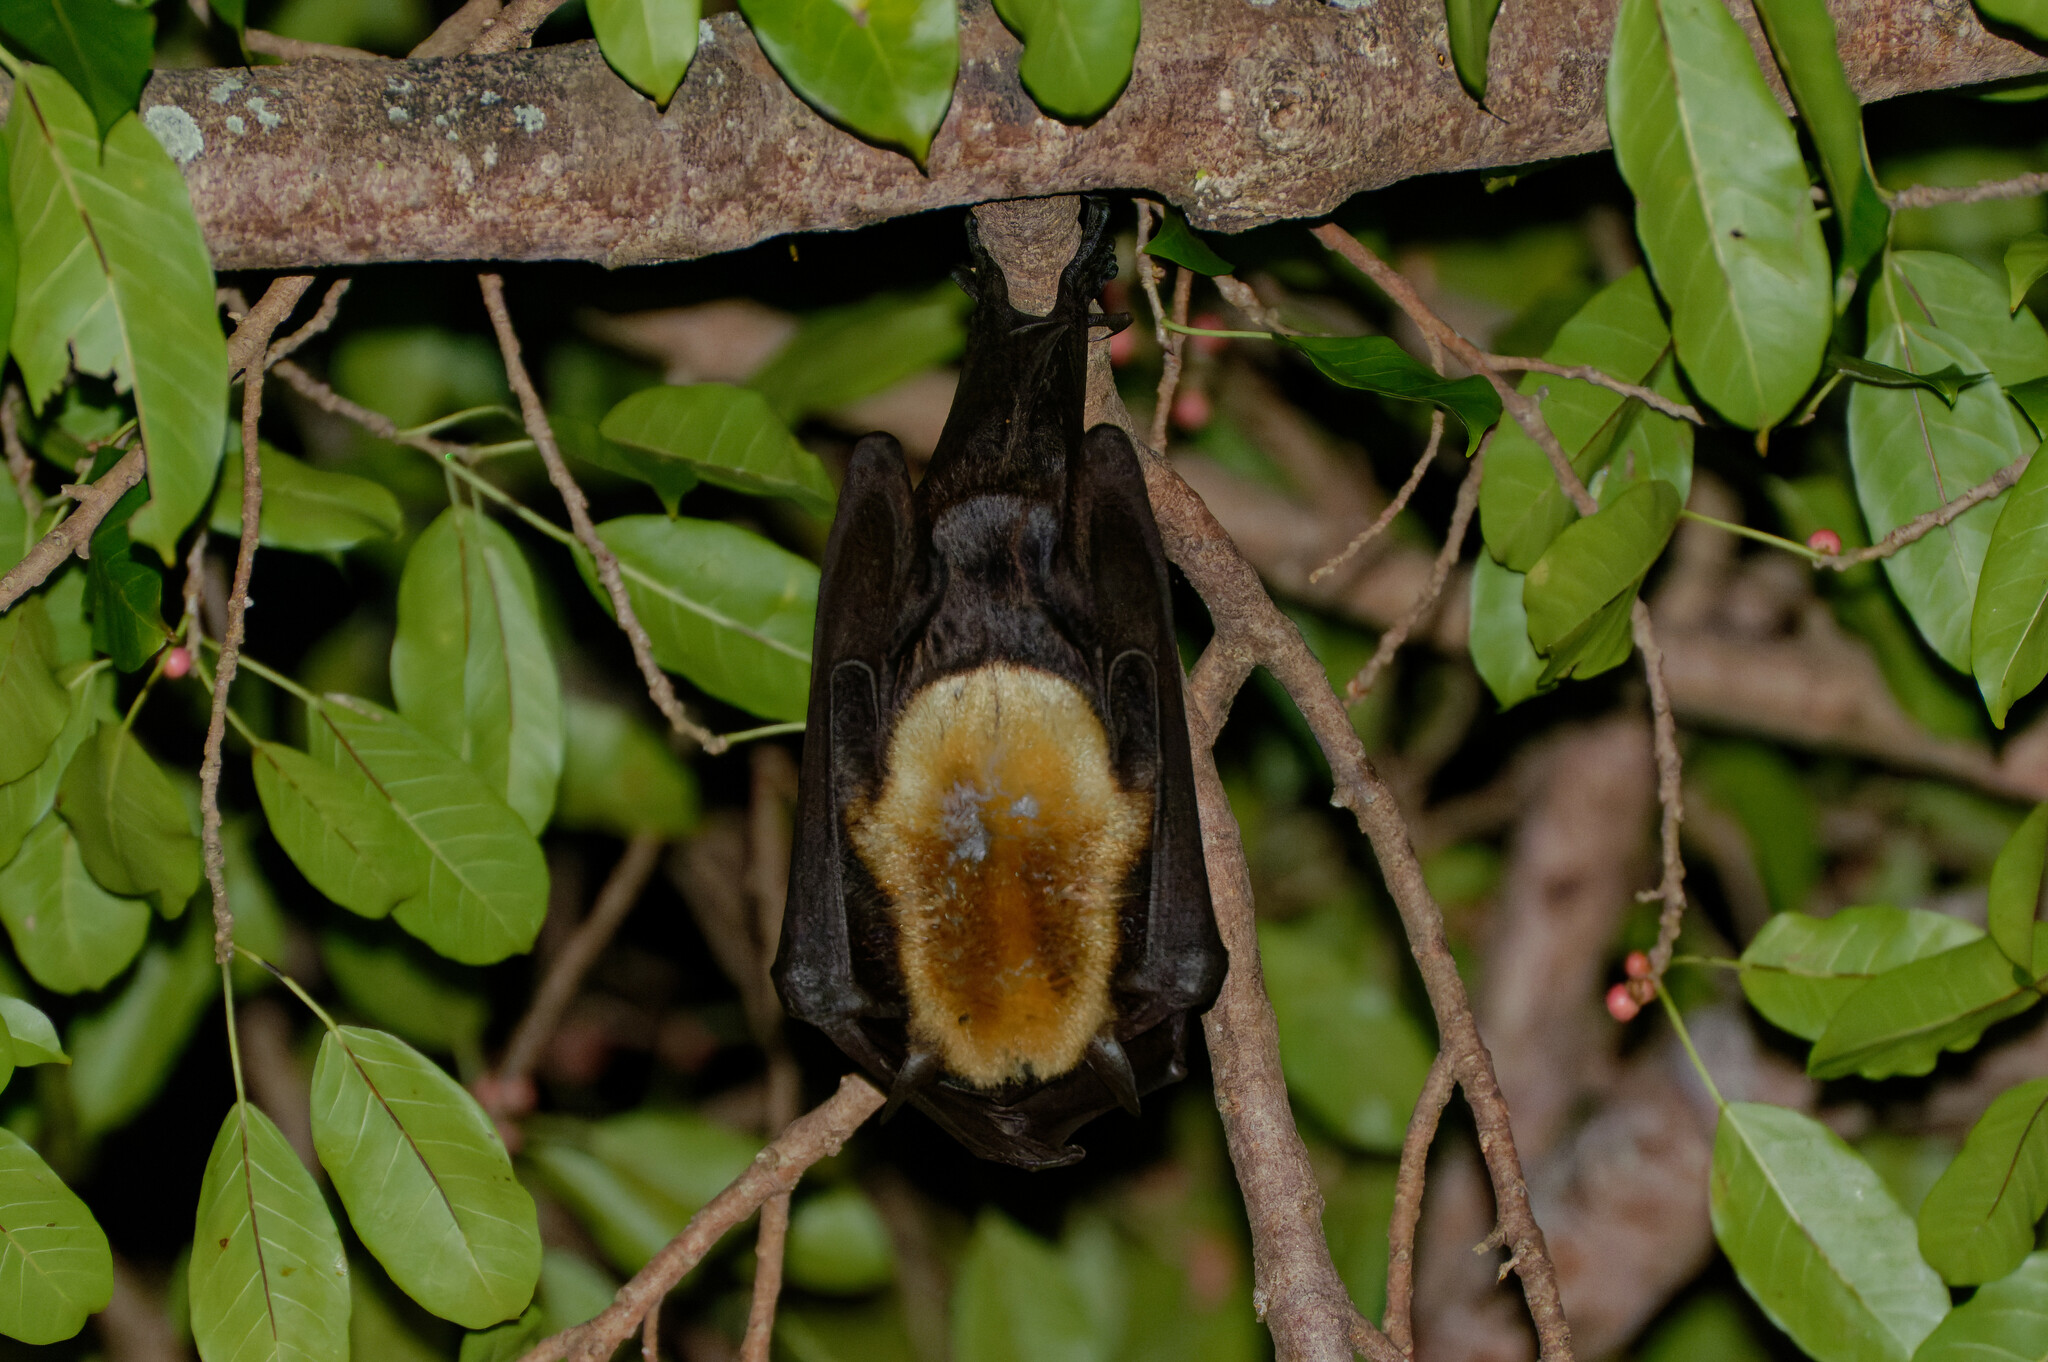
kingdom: Animalia
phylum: Chordata
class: Mammalia
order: Chiroptera
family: Pteropodidae
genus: Pteropus
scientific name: Pteropus conspicillatus
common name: Spectacled flying fox
